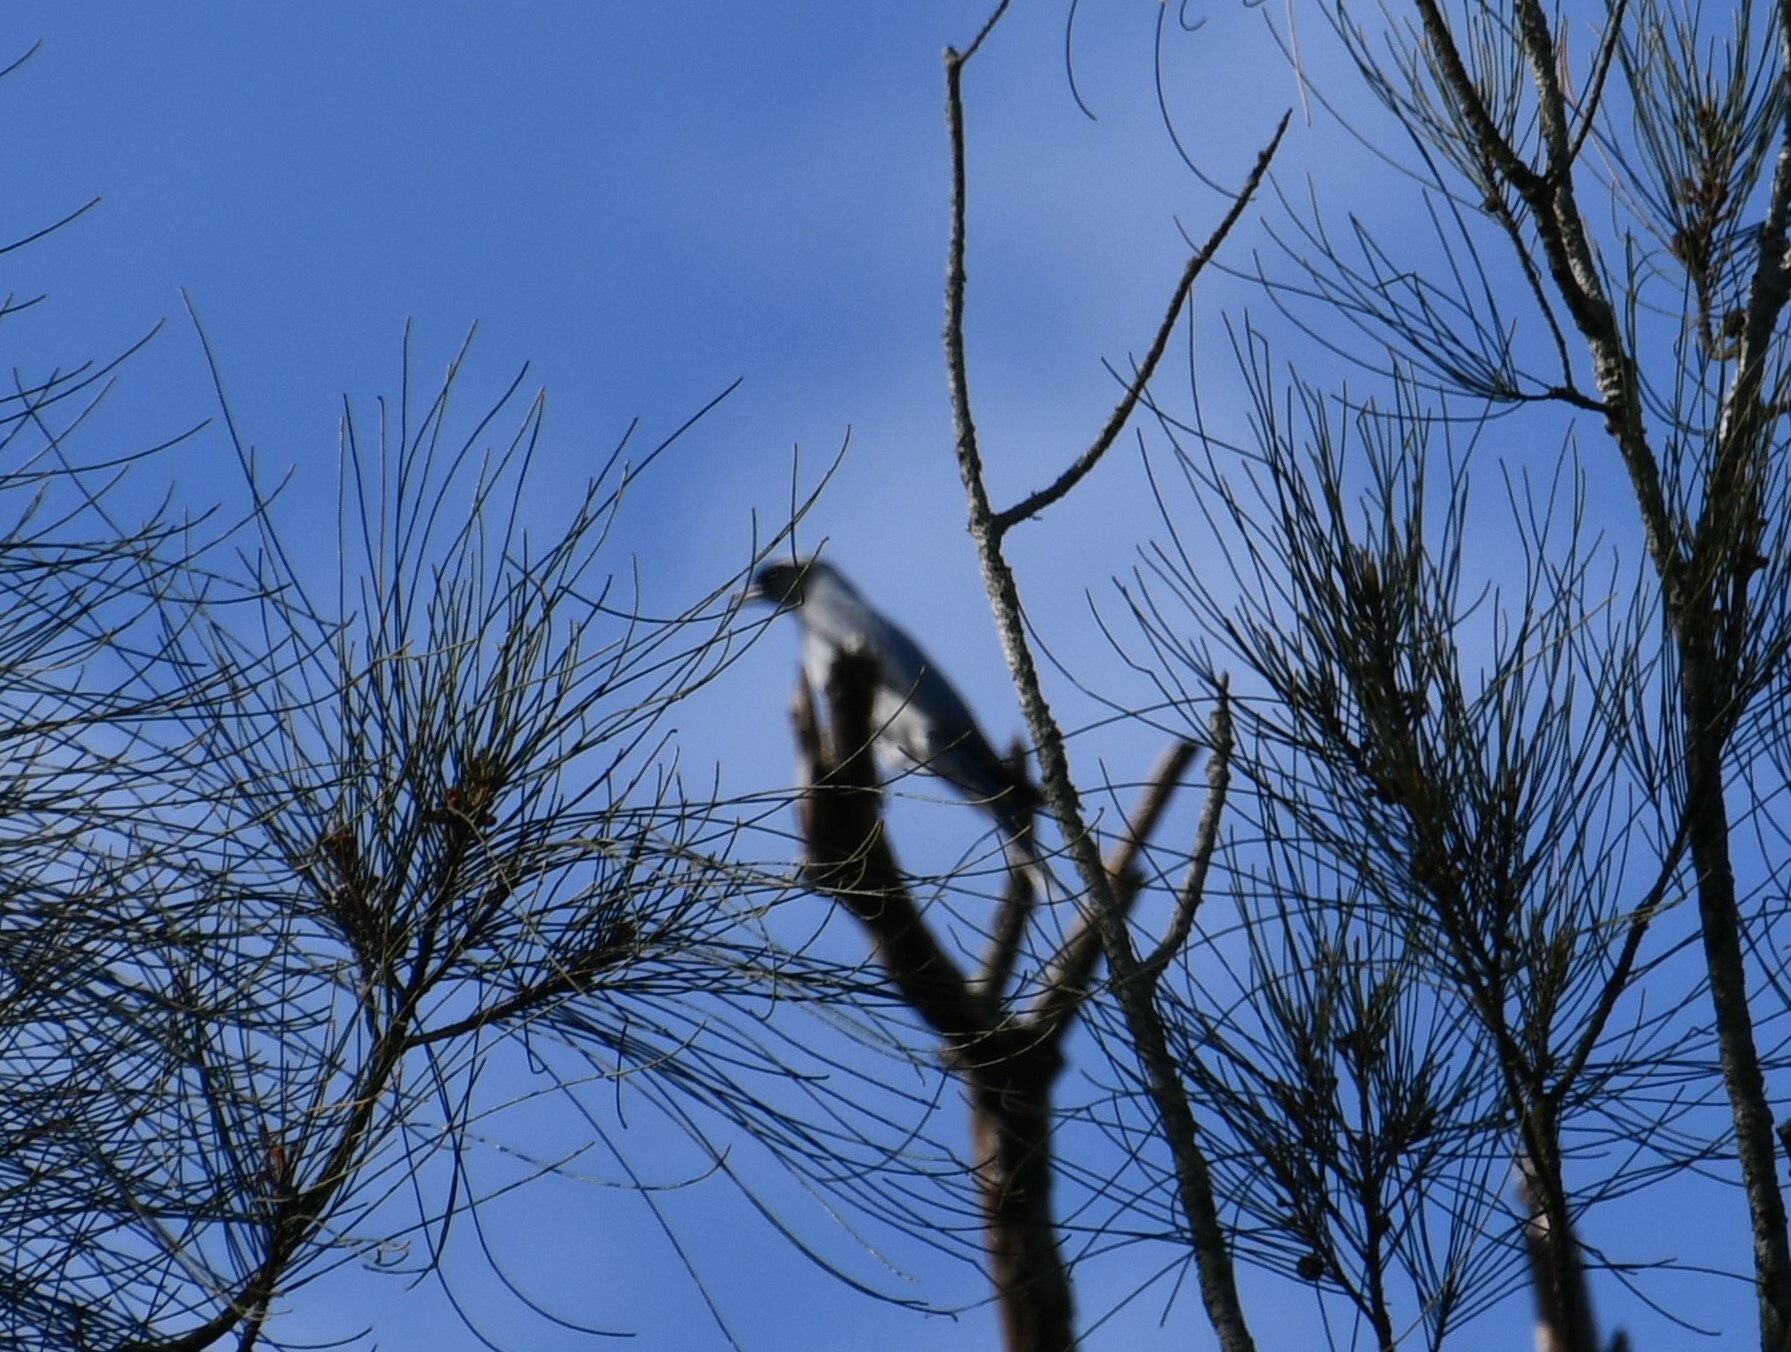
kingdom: Animalia
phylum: Chordata
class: Aves
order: Passeriformes
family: Campephagidae
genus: Coracina
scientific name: Coracina novaehollandiae
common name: Black-faced cuckooshrike
